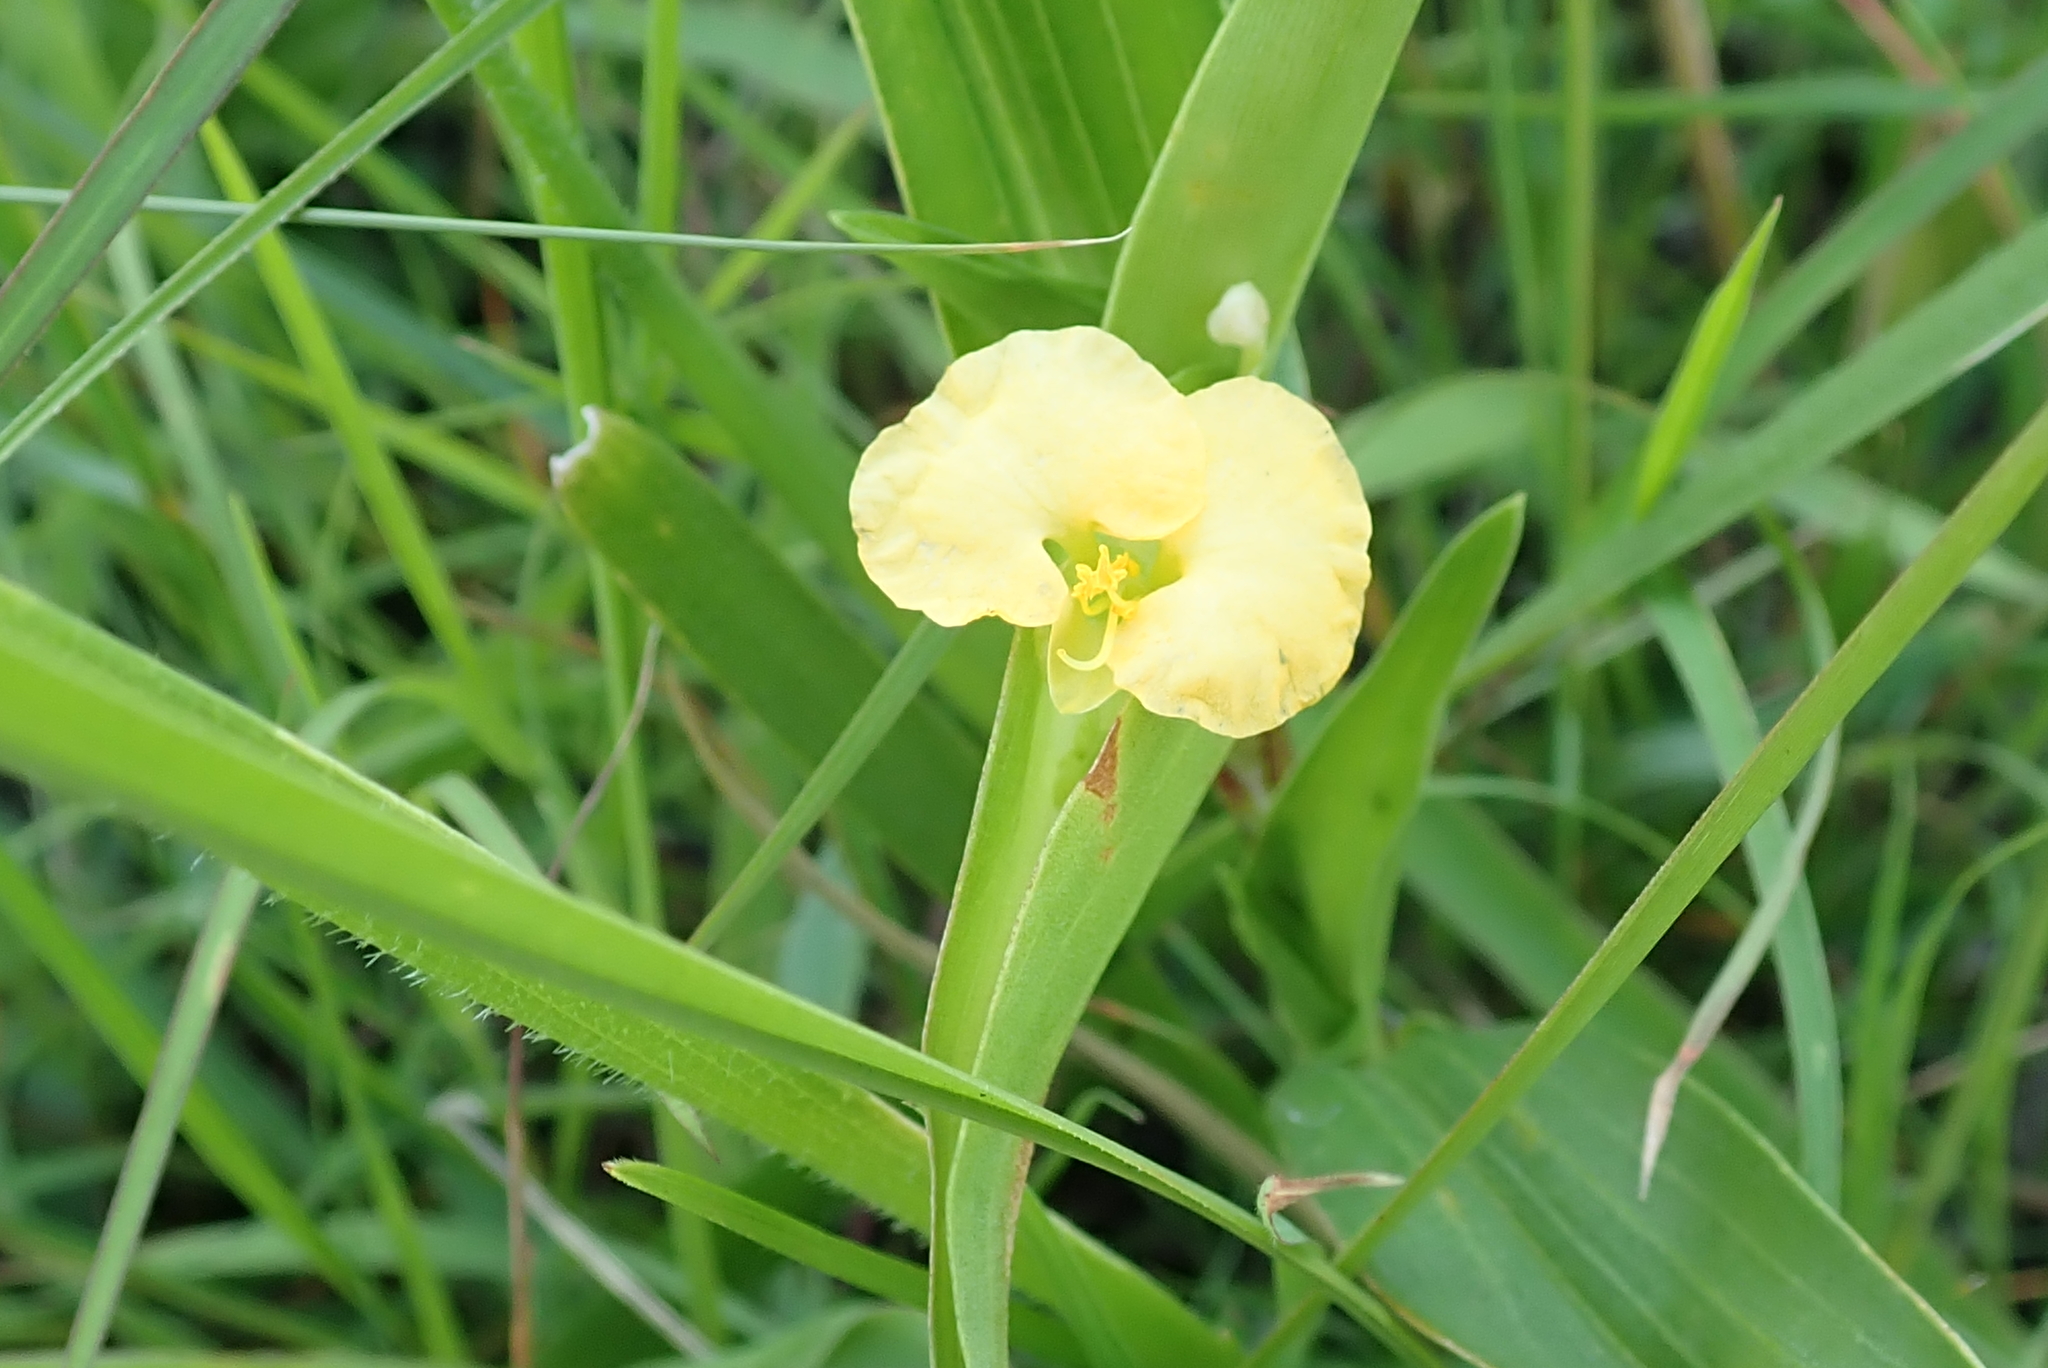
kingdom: Plantae
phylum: Tracheophyta
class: Liliopsida
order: Commelinales
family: Commelinaceae
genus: Commelina
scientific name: Commelina africana
